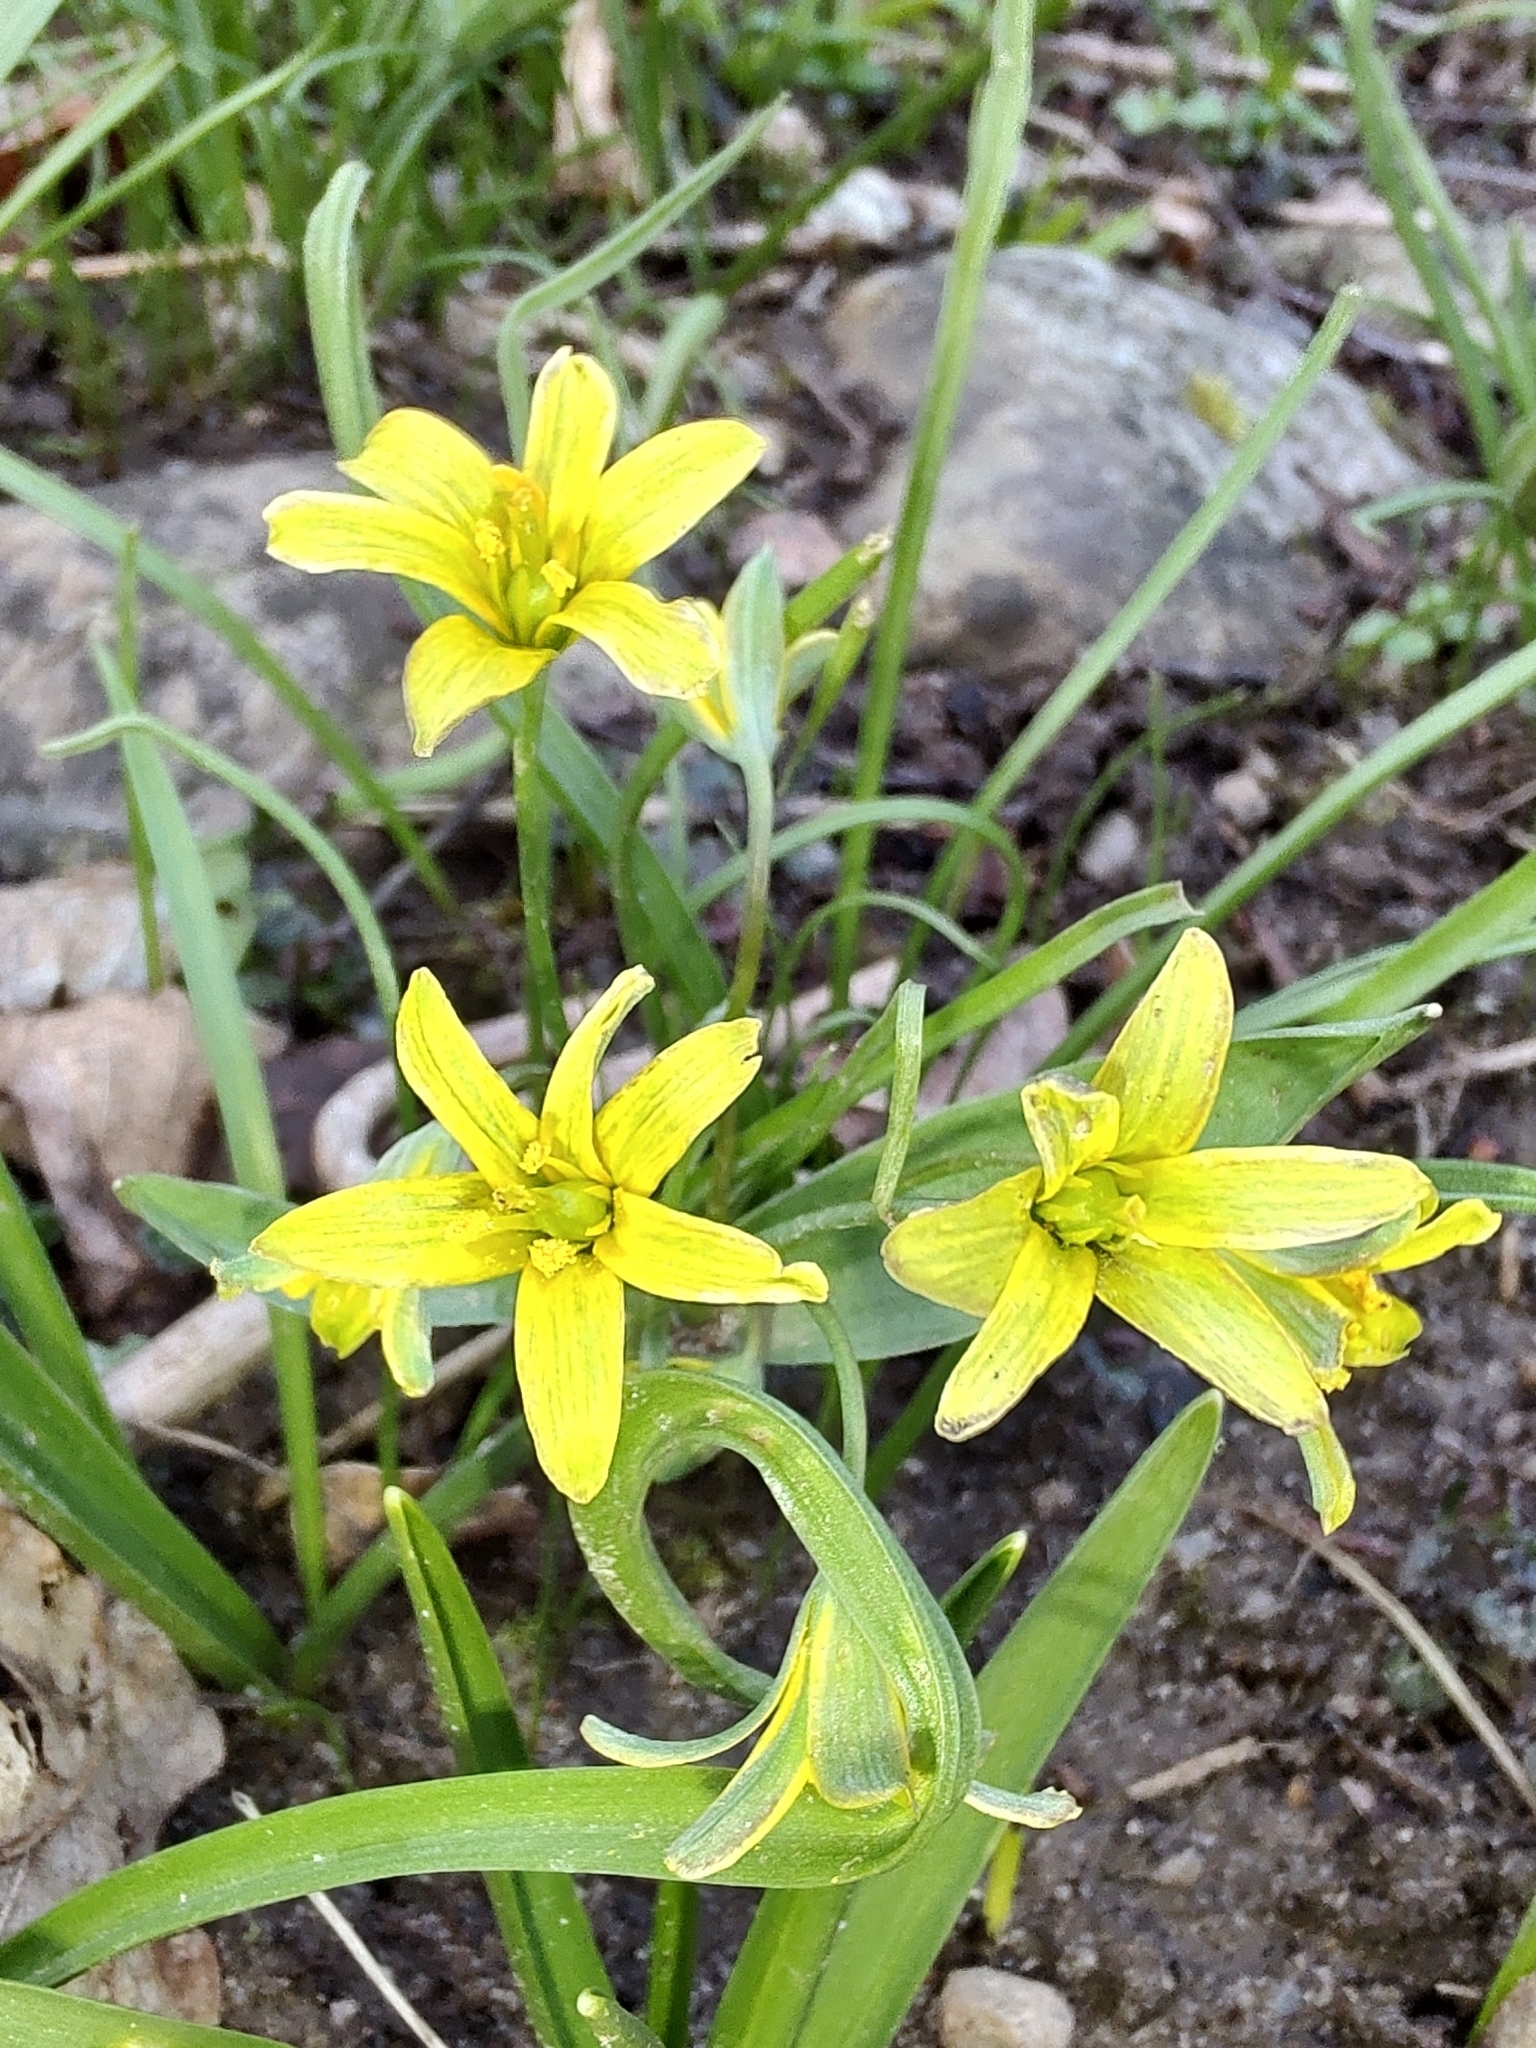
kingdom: Plantae
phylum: Tracheophyta
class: Liliopsida
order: Liliales
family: Liliaceae
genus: Gagea
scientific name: Gagea lutea
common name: Yellow star-of-bethlehem
